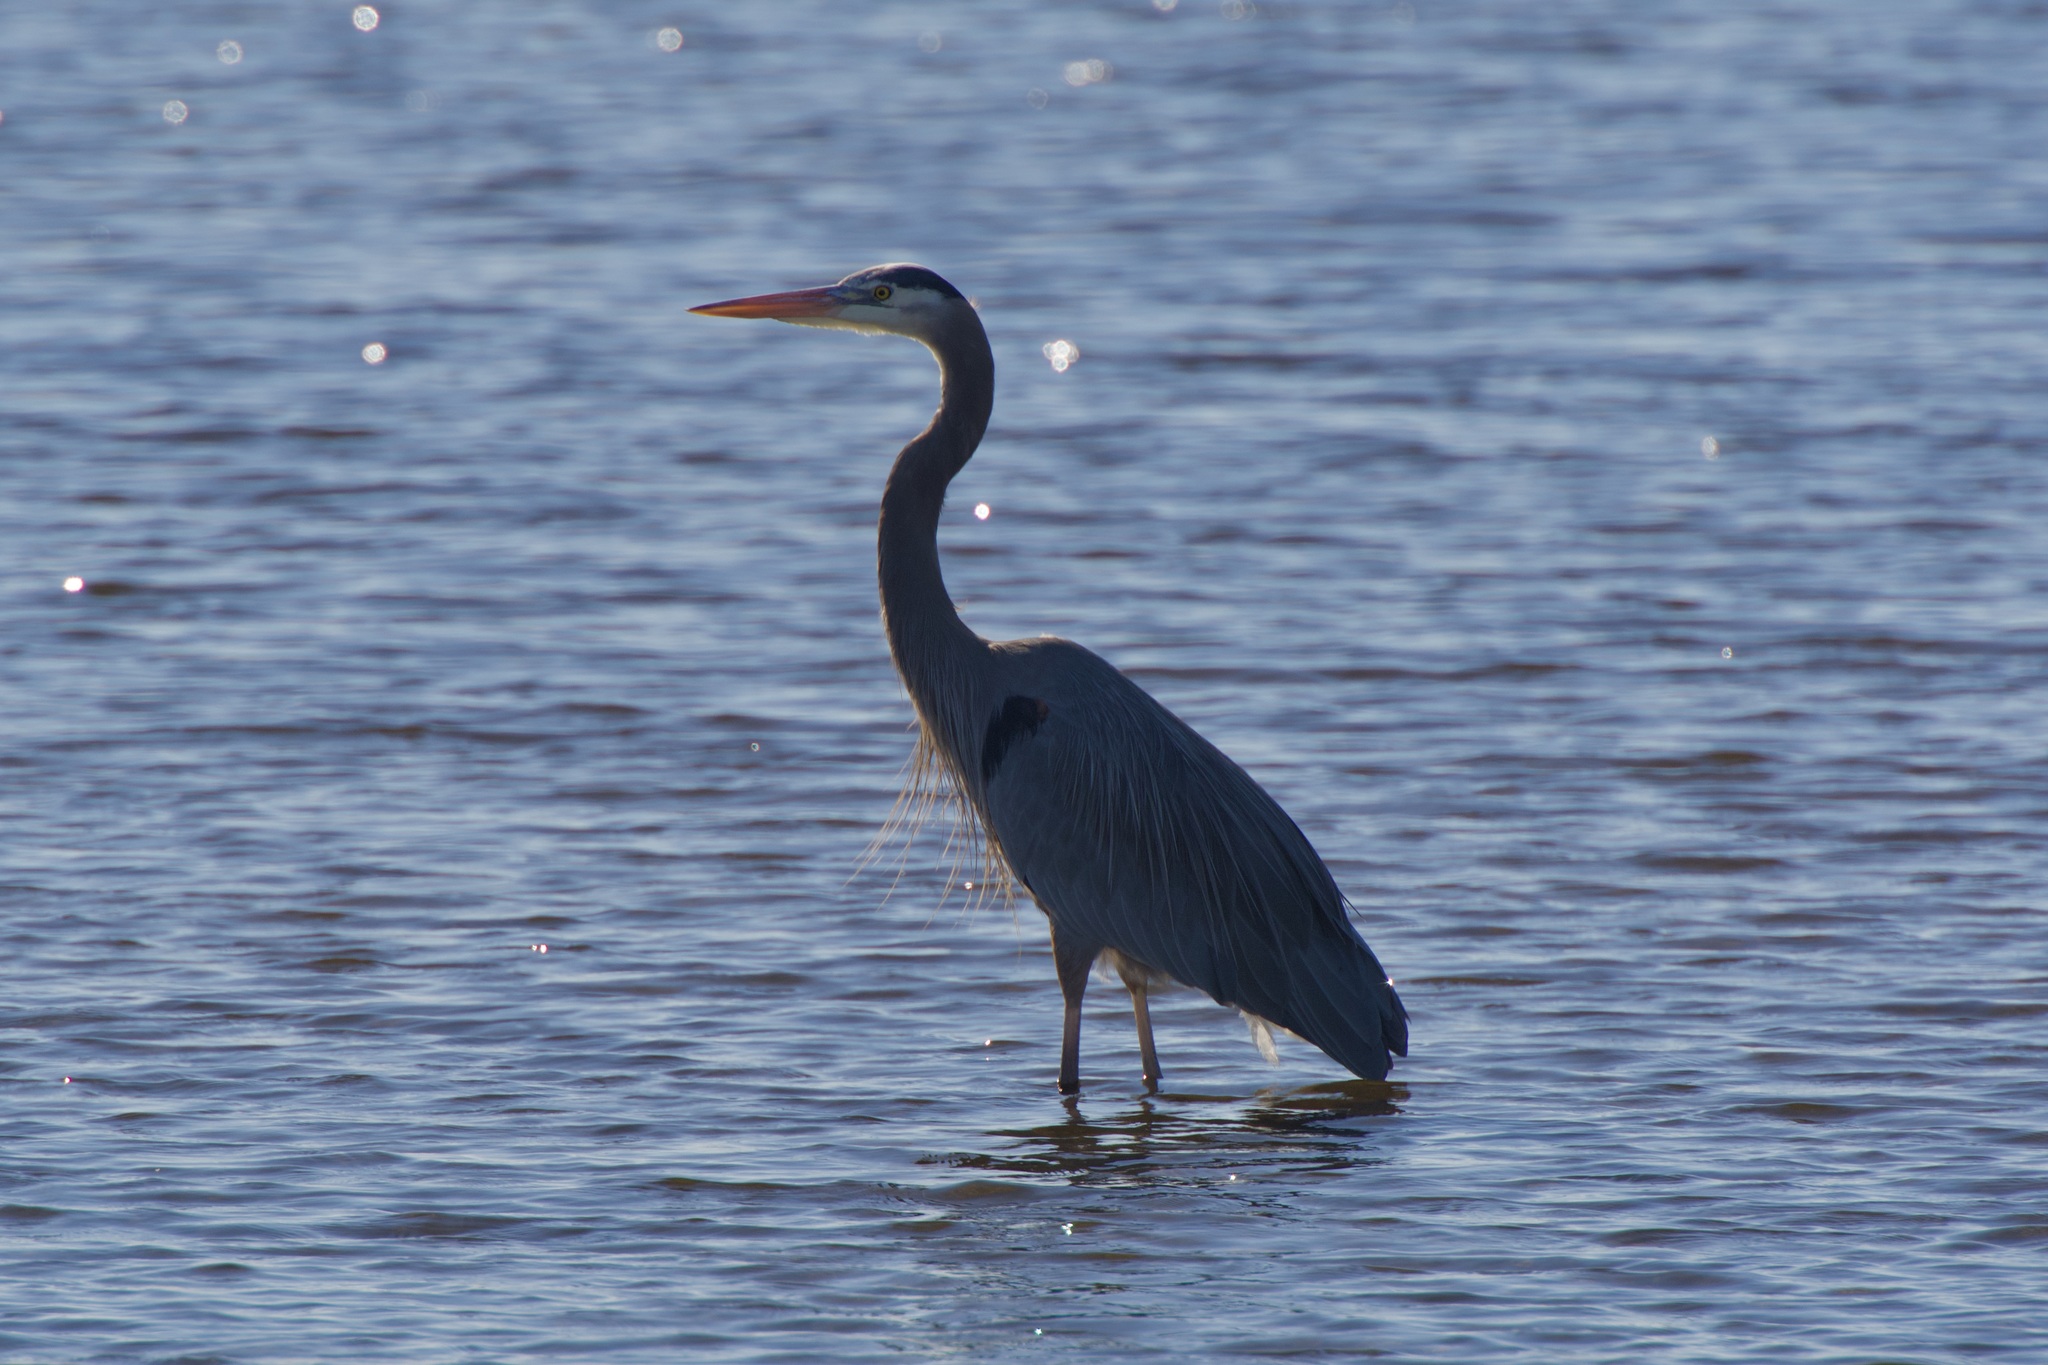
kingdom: Animalia
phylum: Chordata
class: Aves
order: Pelecaniformes
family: Ardeidae
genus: Ardea
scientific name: Ardea herodias
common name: Great blue heron
